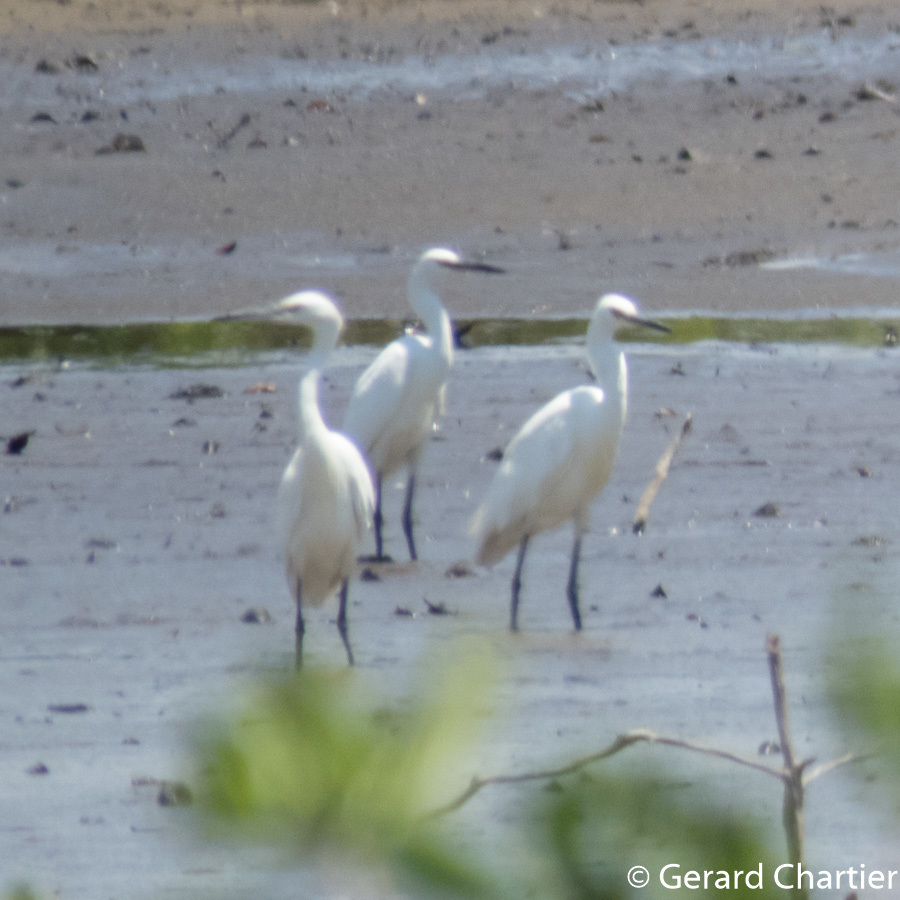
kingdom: Animalia
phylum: Chordata
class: Aves
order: Pelecaniformes
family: Ardeidae
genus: Egretta
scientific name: Egretta garzetta
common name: Little egret
